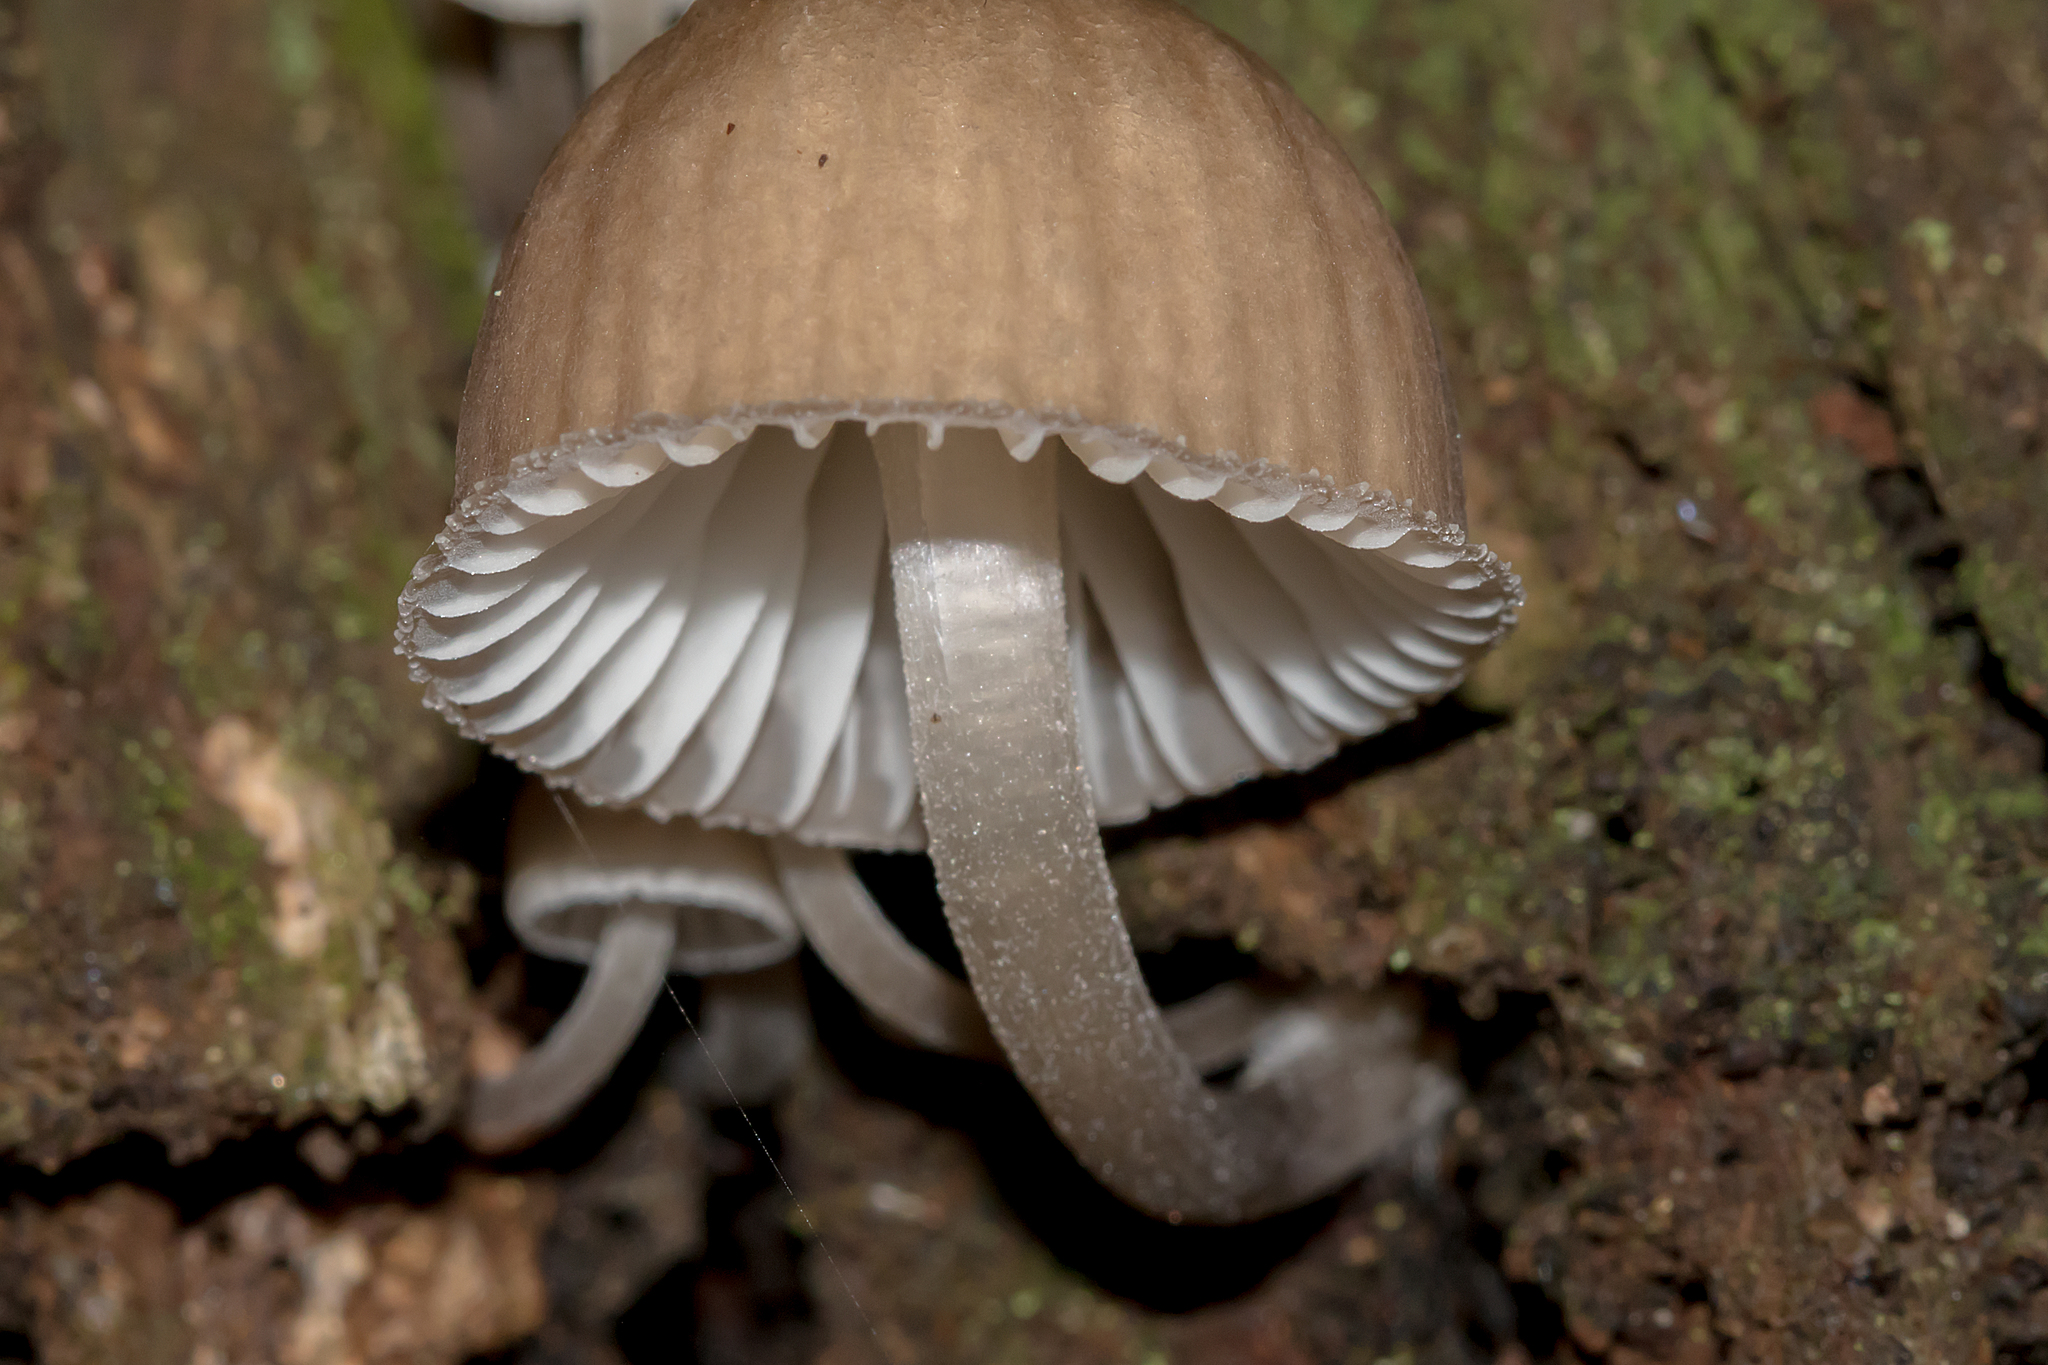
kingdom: Fungi
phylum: Basidiomycota
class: Agaricomycetes
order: Agaricales
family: Mycenaceae
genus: Mycena
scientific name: Mycena subgalericulata
